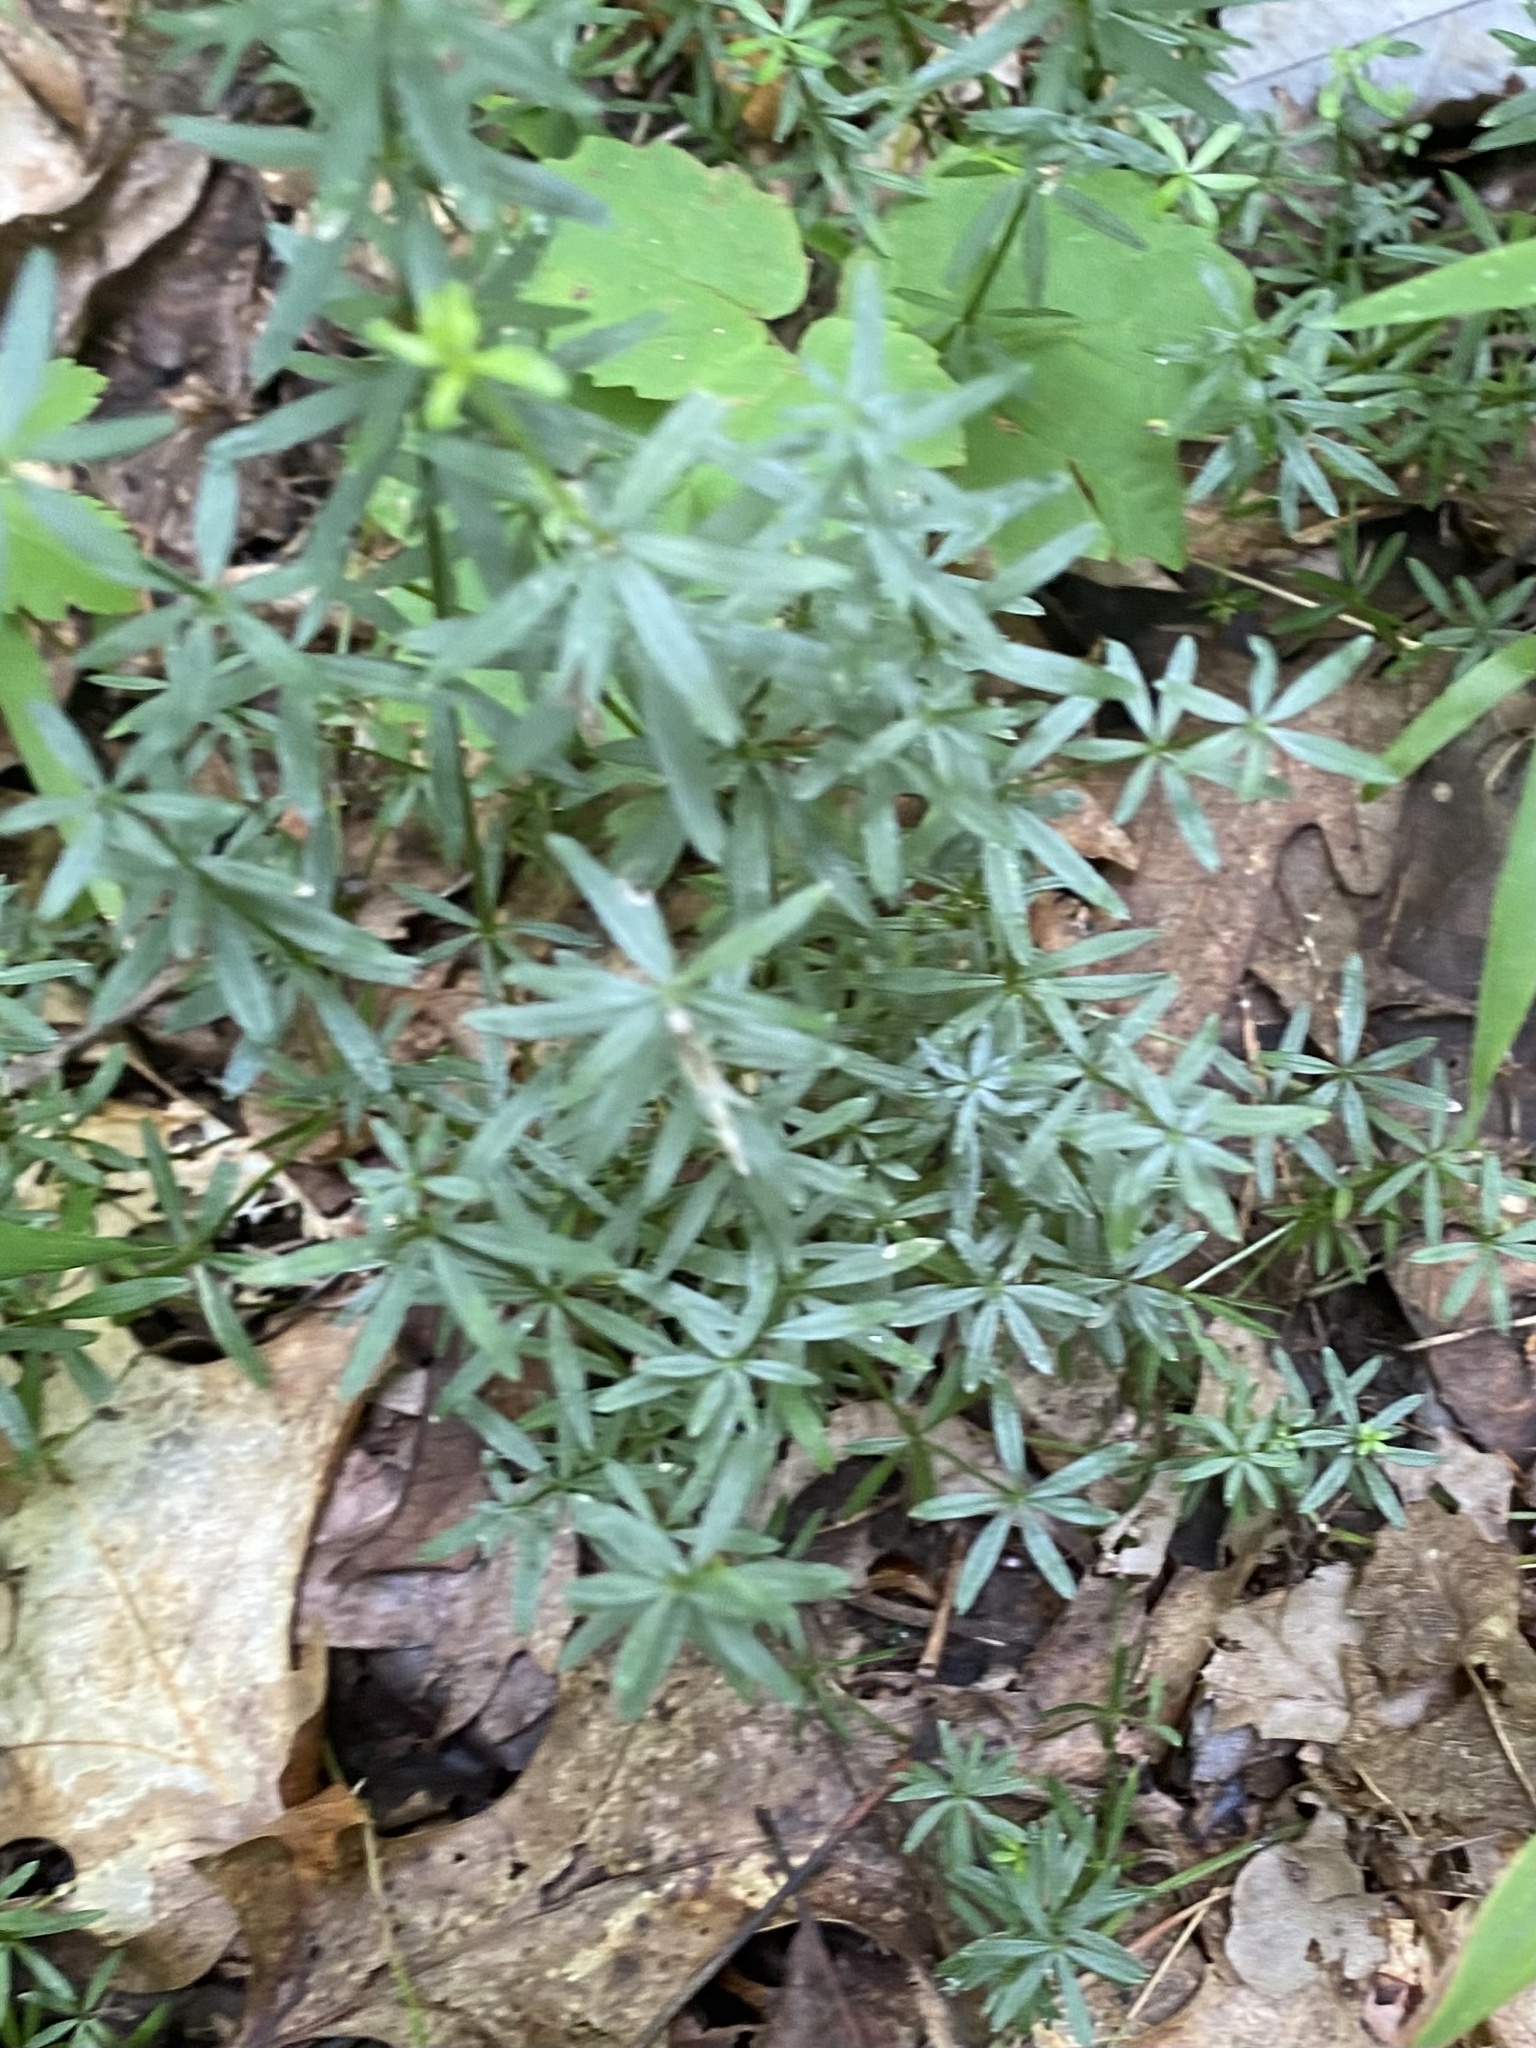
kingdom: Plantae
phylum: Tracheophyta
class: Magnoliopsida
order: Gentianales
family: Rubiaceae
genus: Galium
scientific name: Galium concinnum
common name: Shining bedstraw
